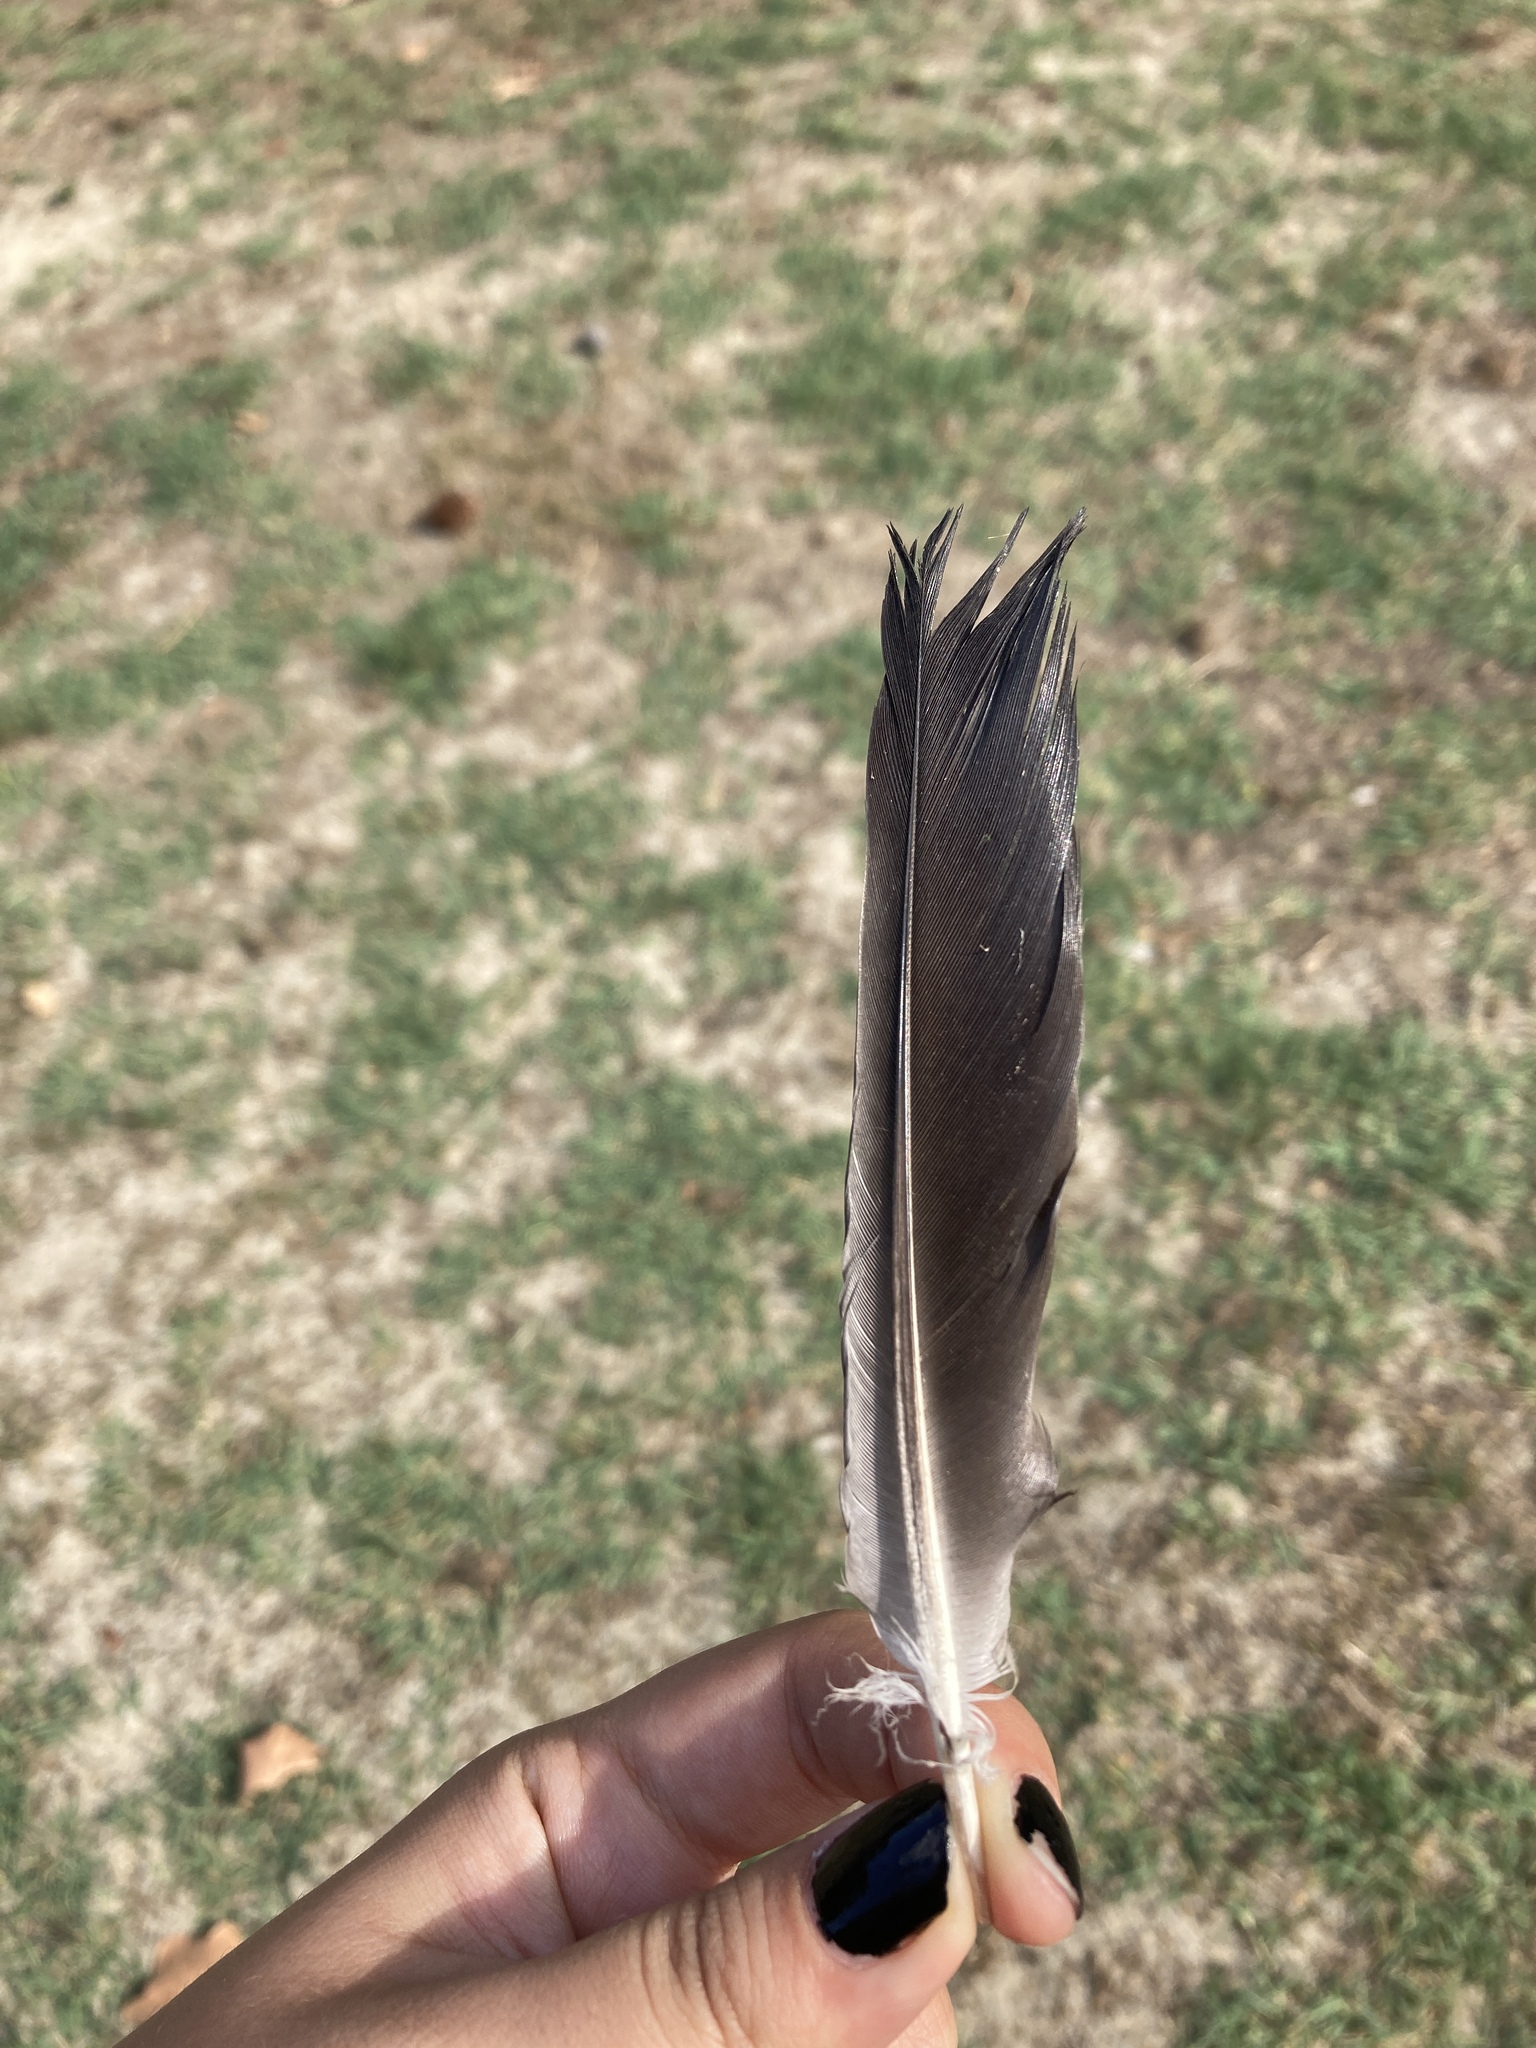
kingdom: Animalia
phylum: Chordata
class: Aves
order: Columbiformes
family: Columbidae
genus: Columba
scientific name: Columba livia
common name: Rock pigeon
